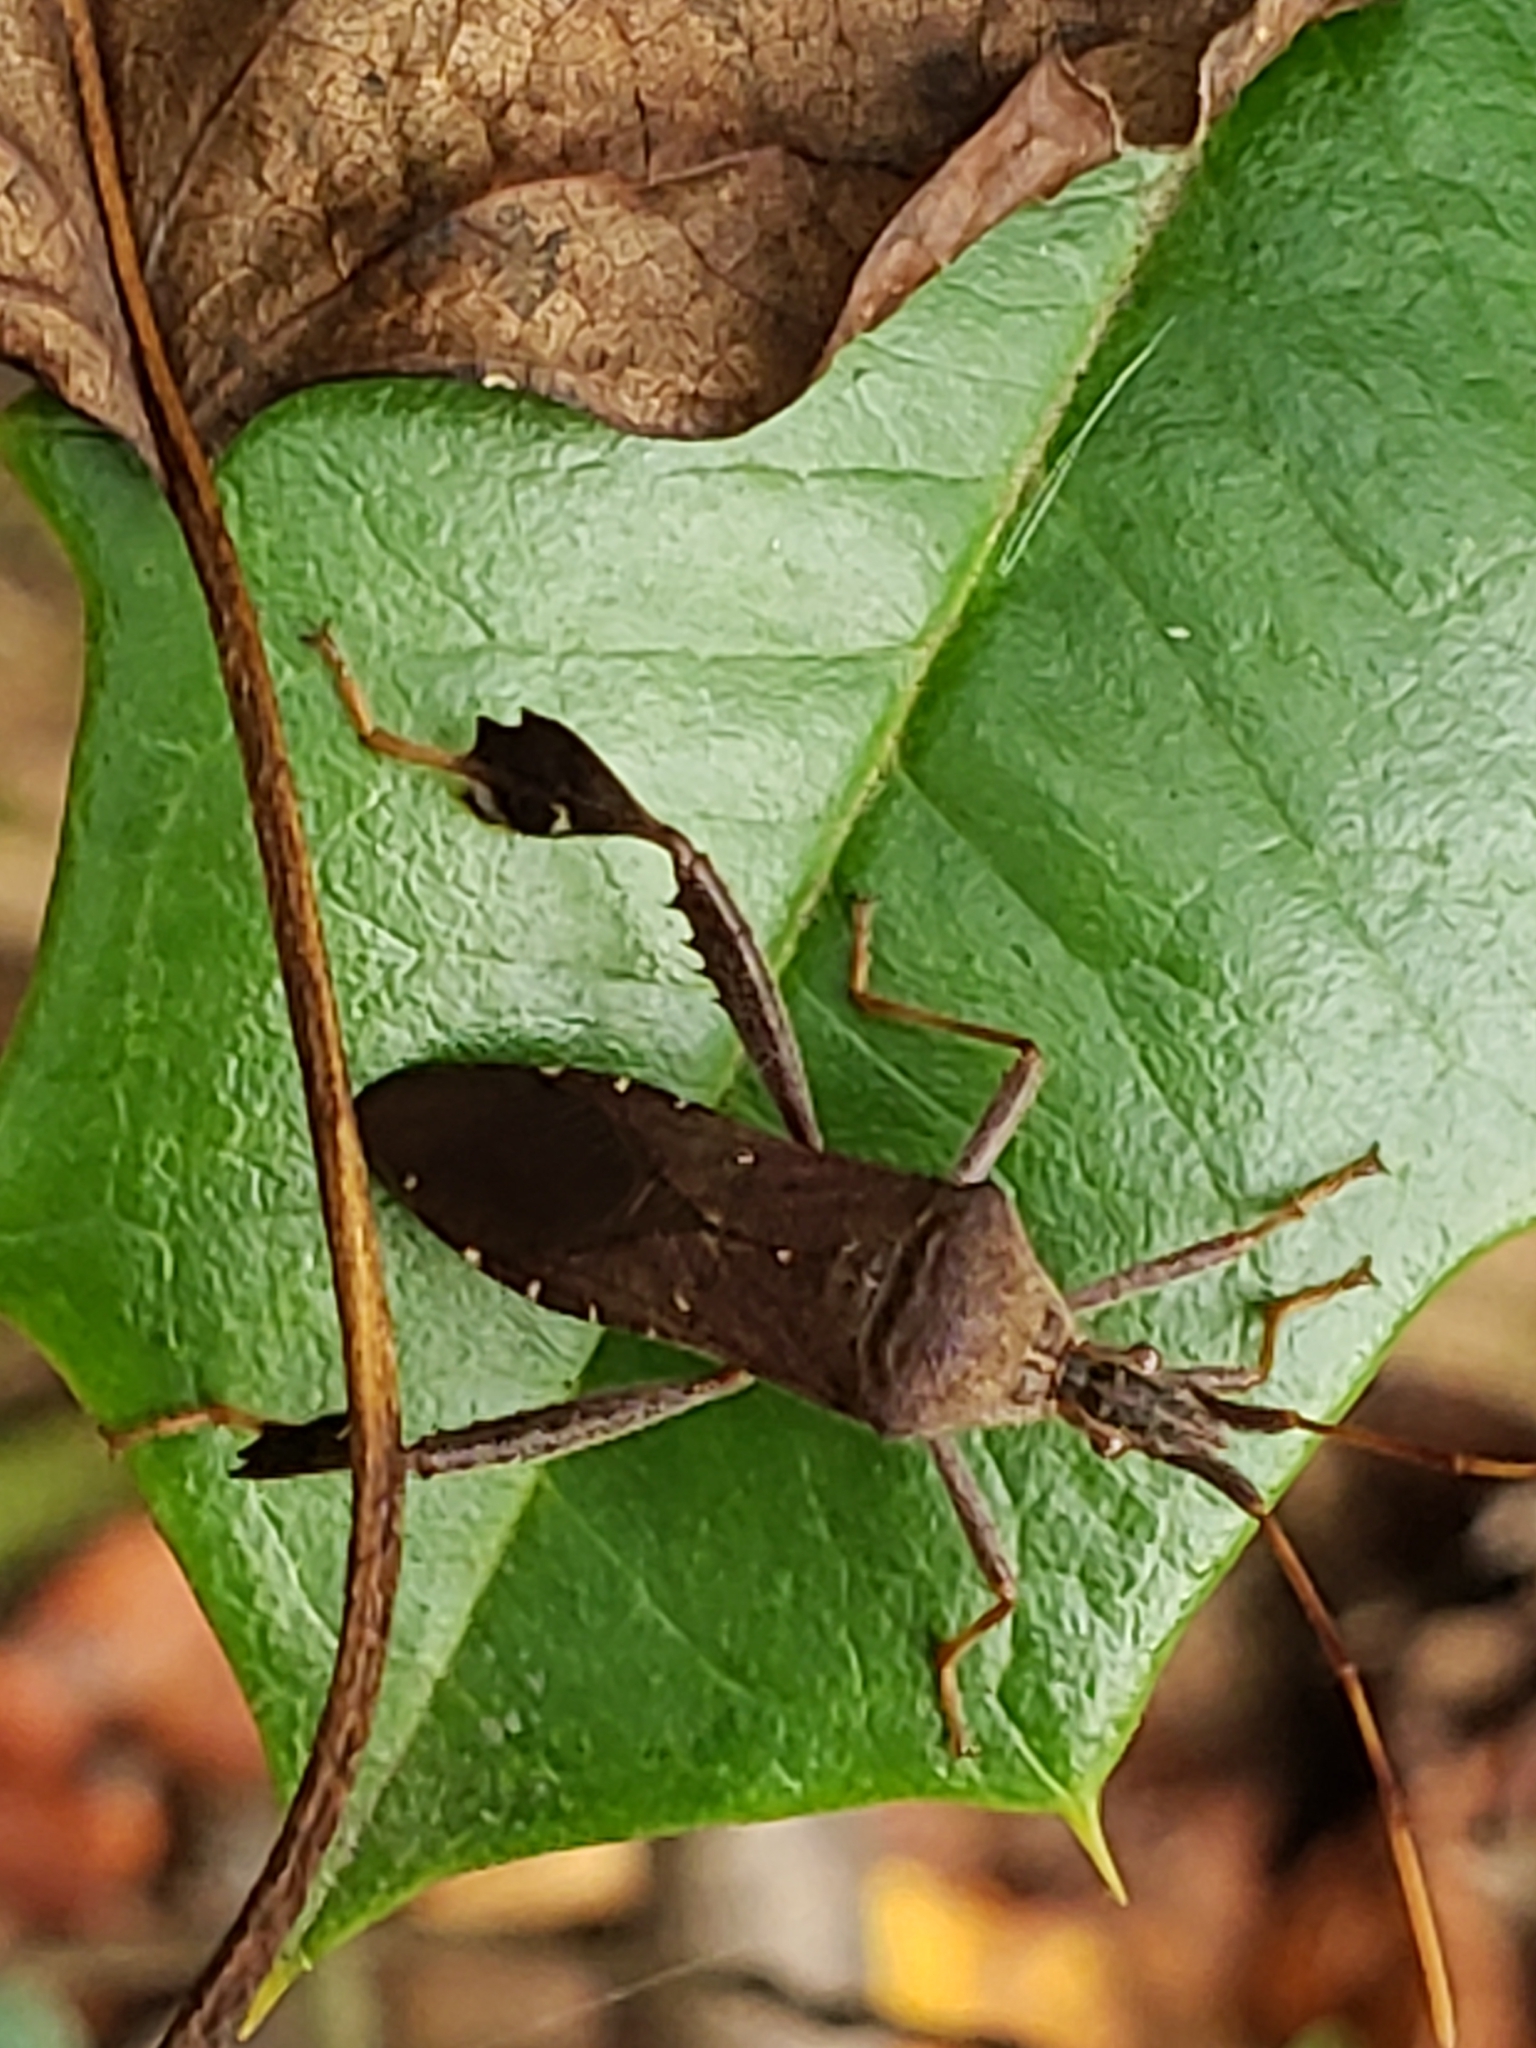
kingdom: Animalia
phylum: Arthropoda
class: Insecta
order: Hemiptera
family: Coreidae
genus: Leptoglossus
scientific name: Leptoglossus oppositus
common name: Northern leaf-footed bug
